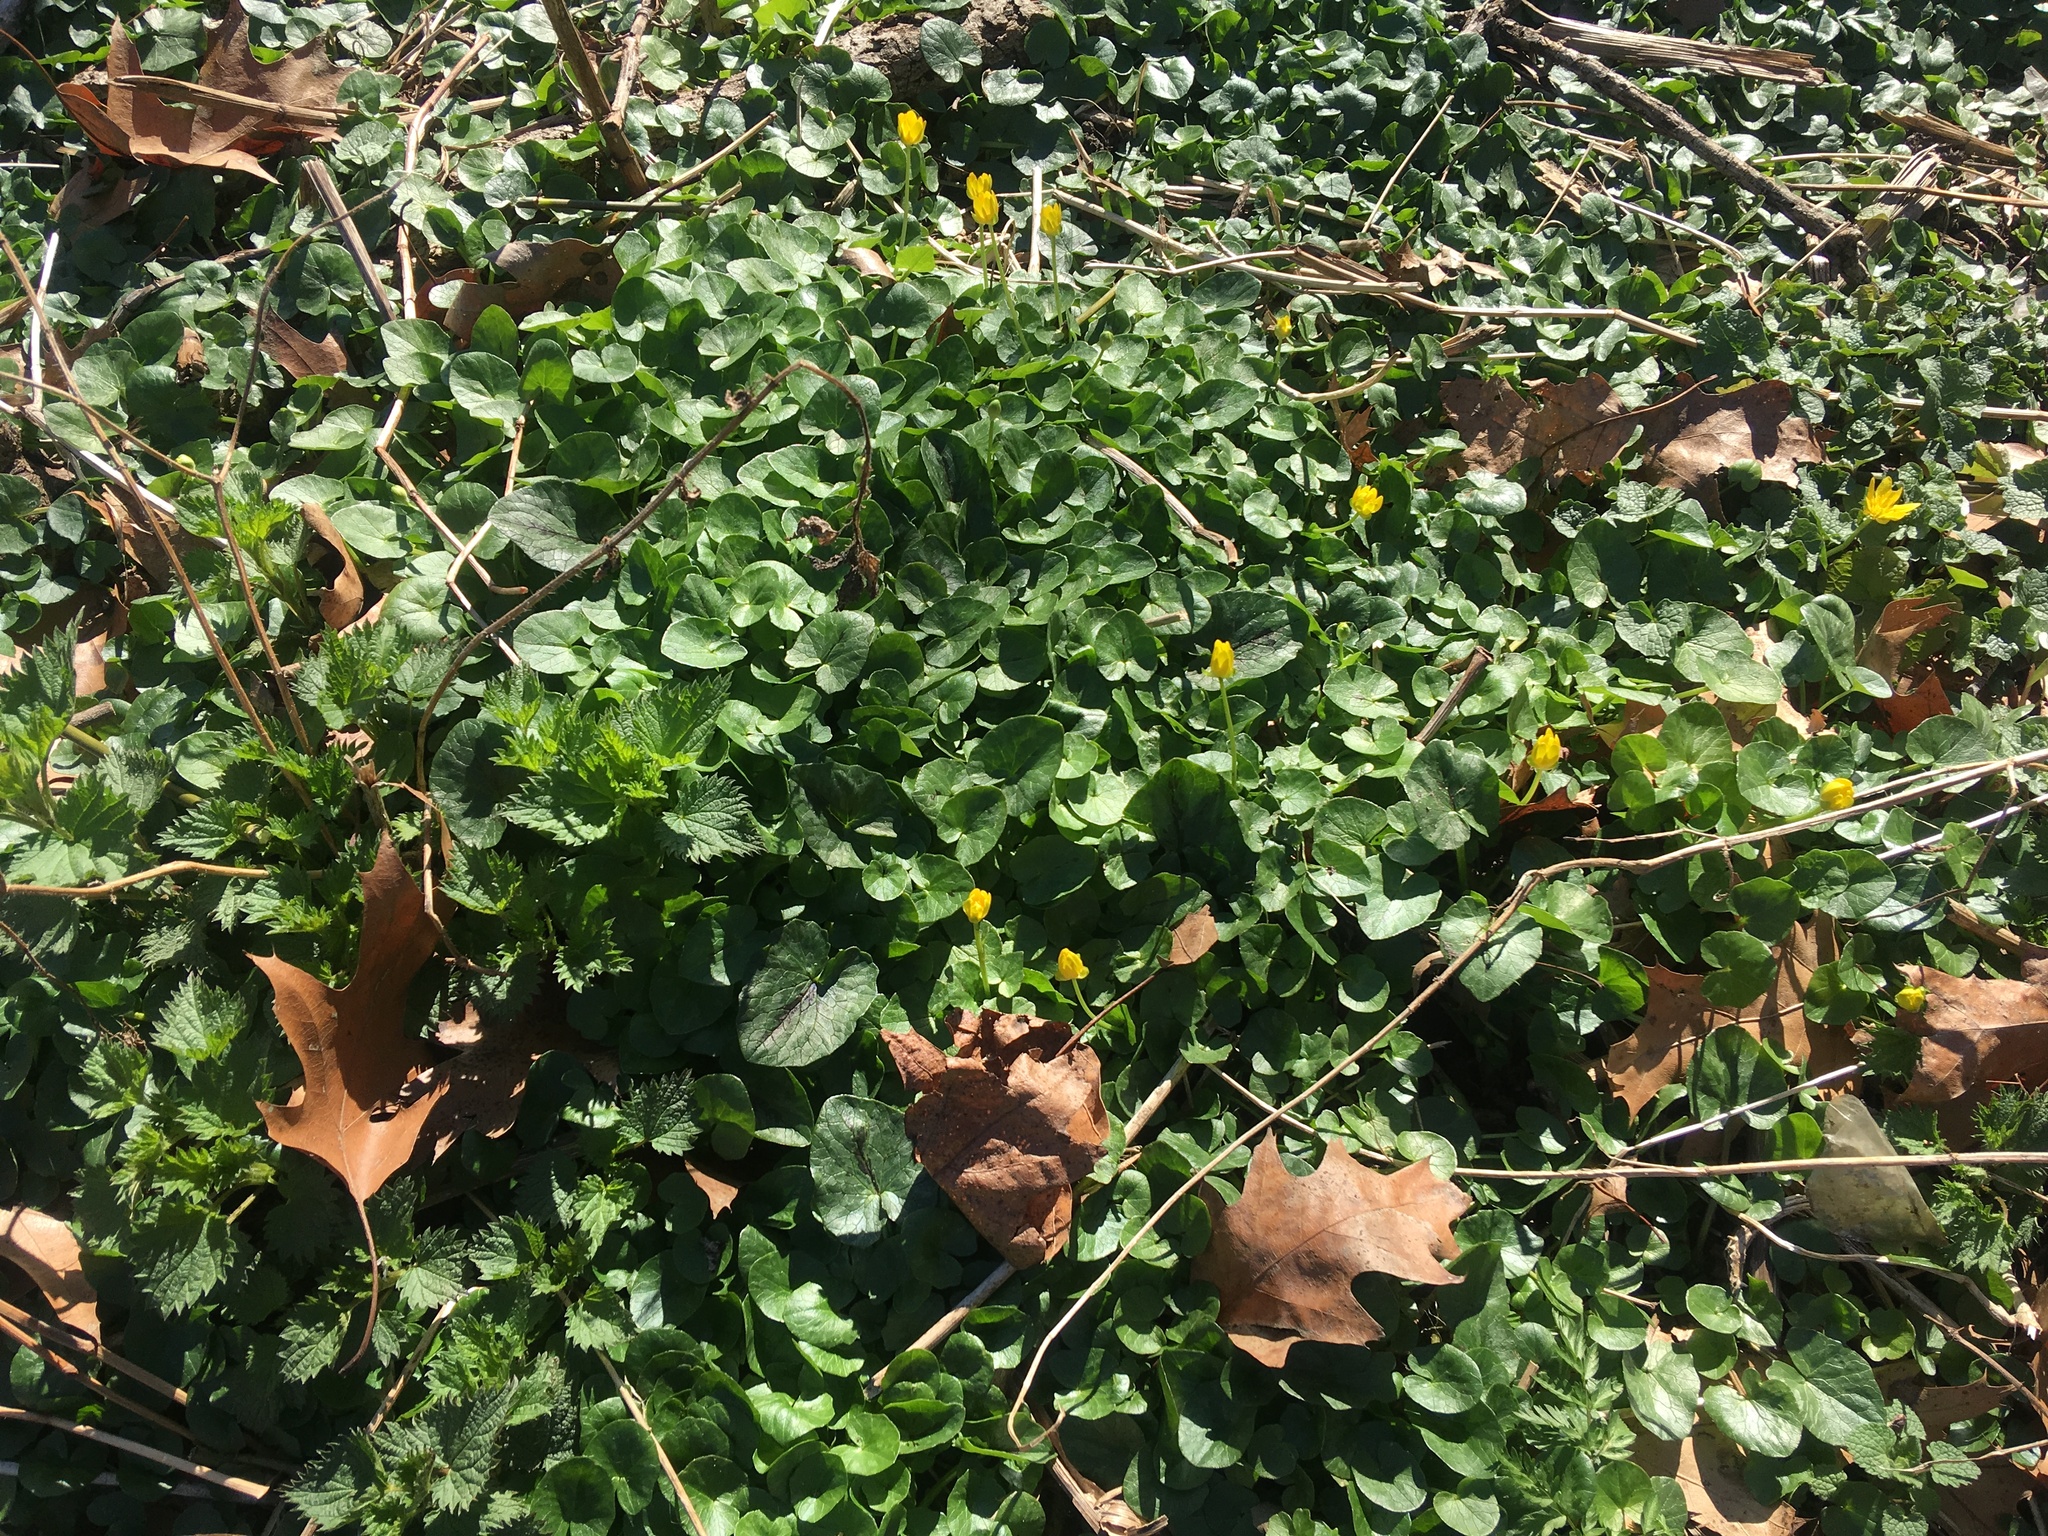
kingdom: Plantae
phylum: Tracheophyta
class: Magnoliopsida
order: Ranunculales
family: Ranunculaceae
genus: Ficaria
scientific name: Ficaria verna
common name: Lesser celandine
